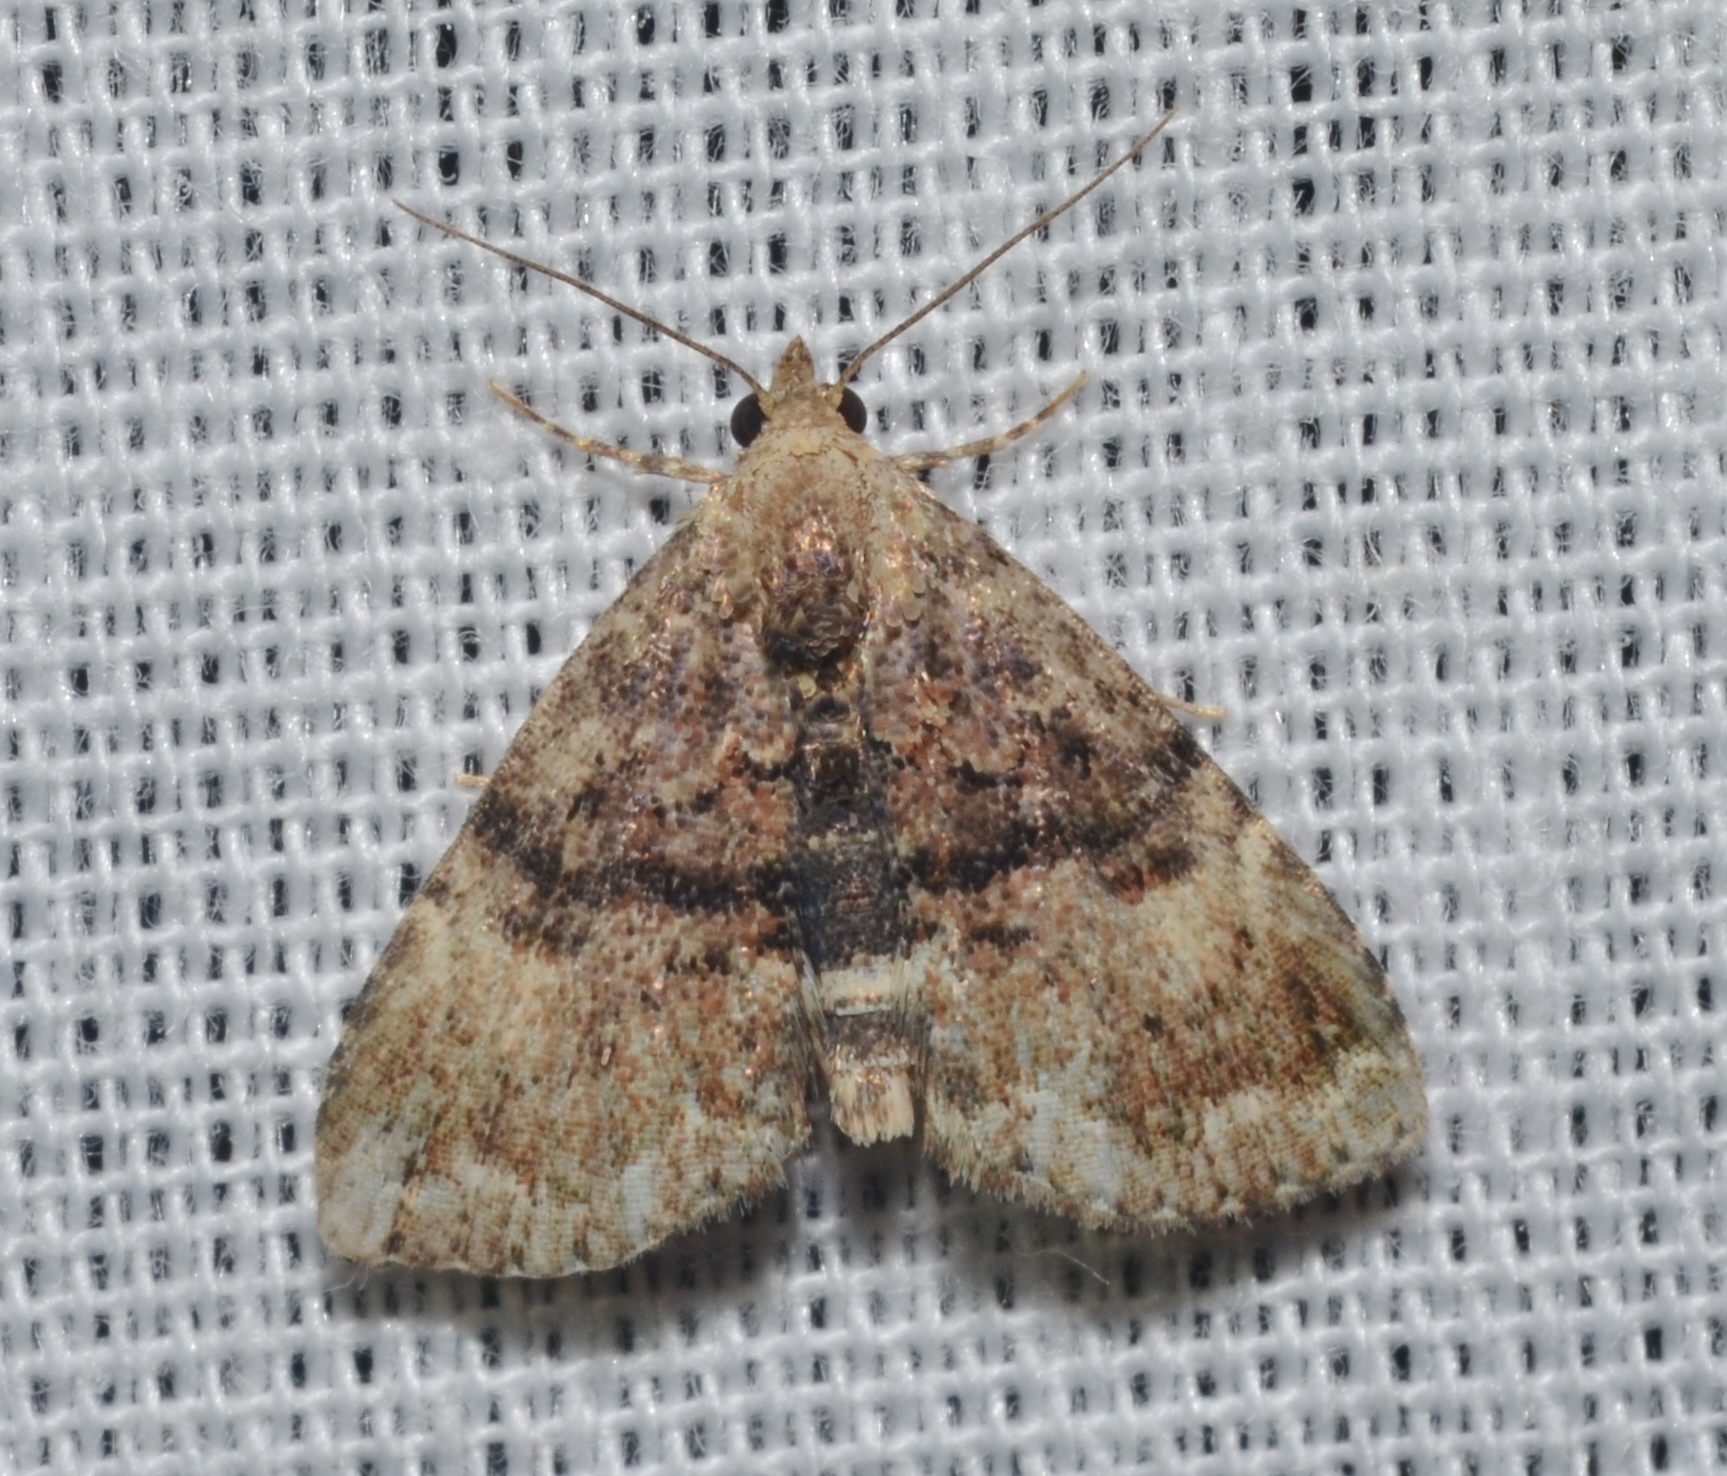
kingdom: Animalia
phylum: Arthropoda
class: Insecta
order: Lepidoptera
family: Erebidae
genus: Metalectra
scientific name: Metalectra richardsi
